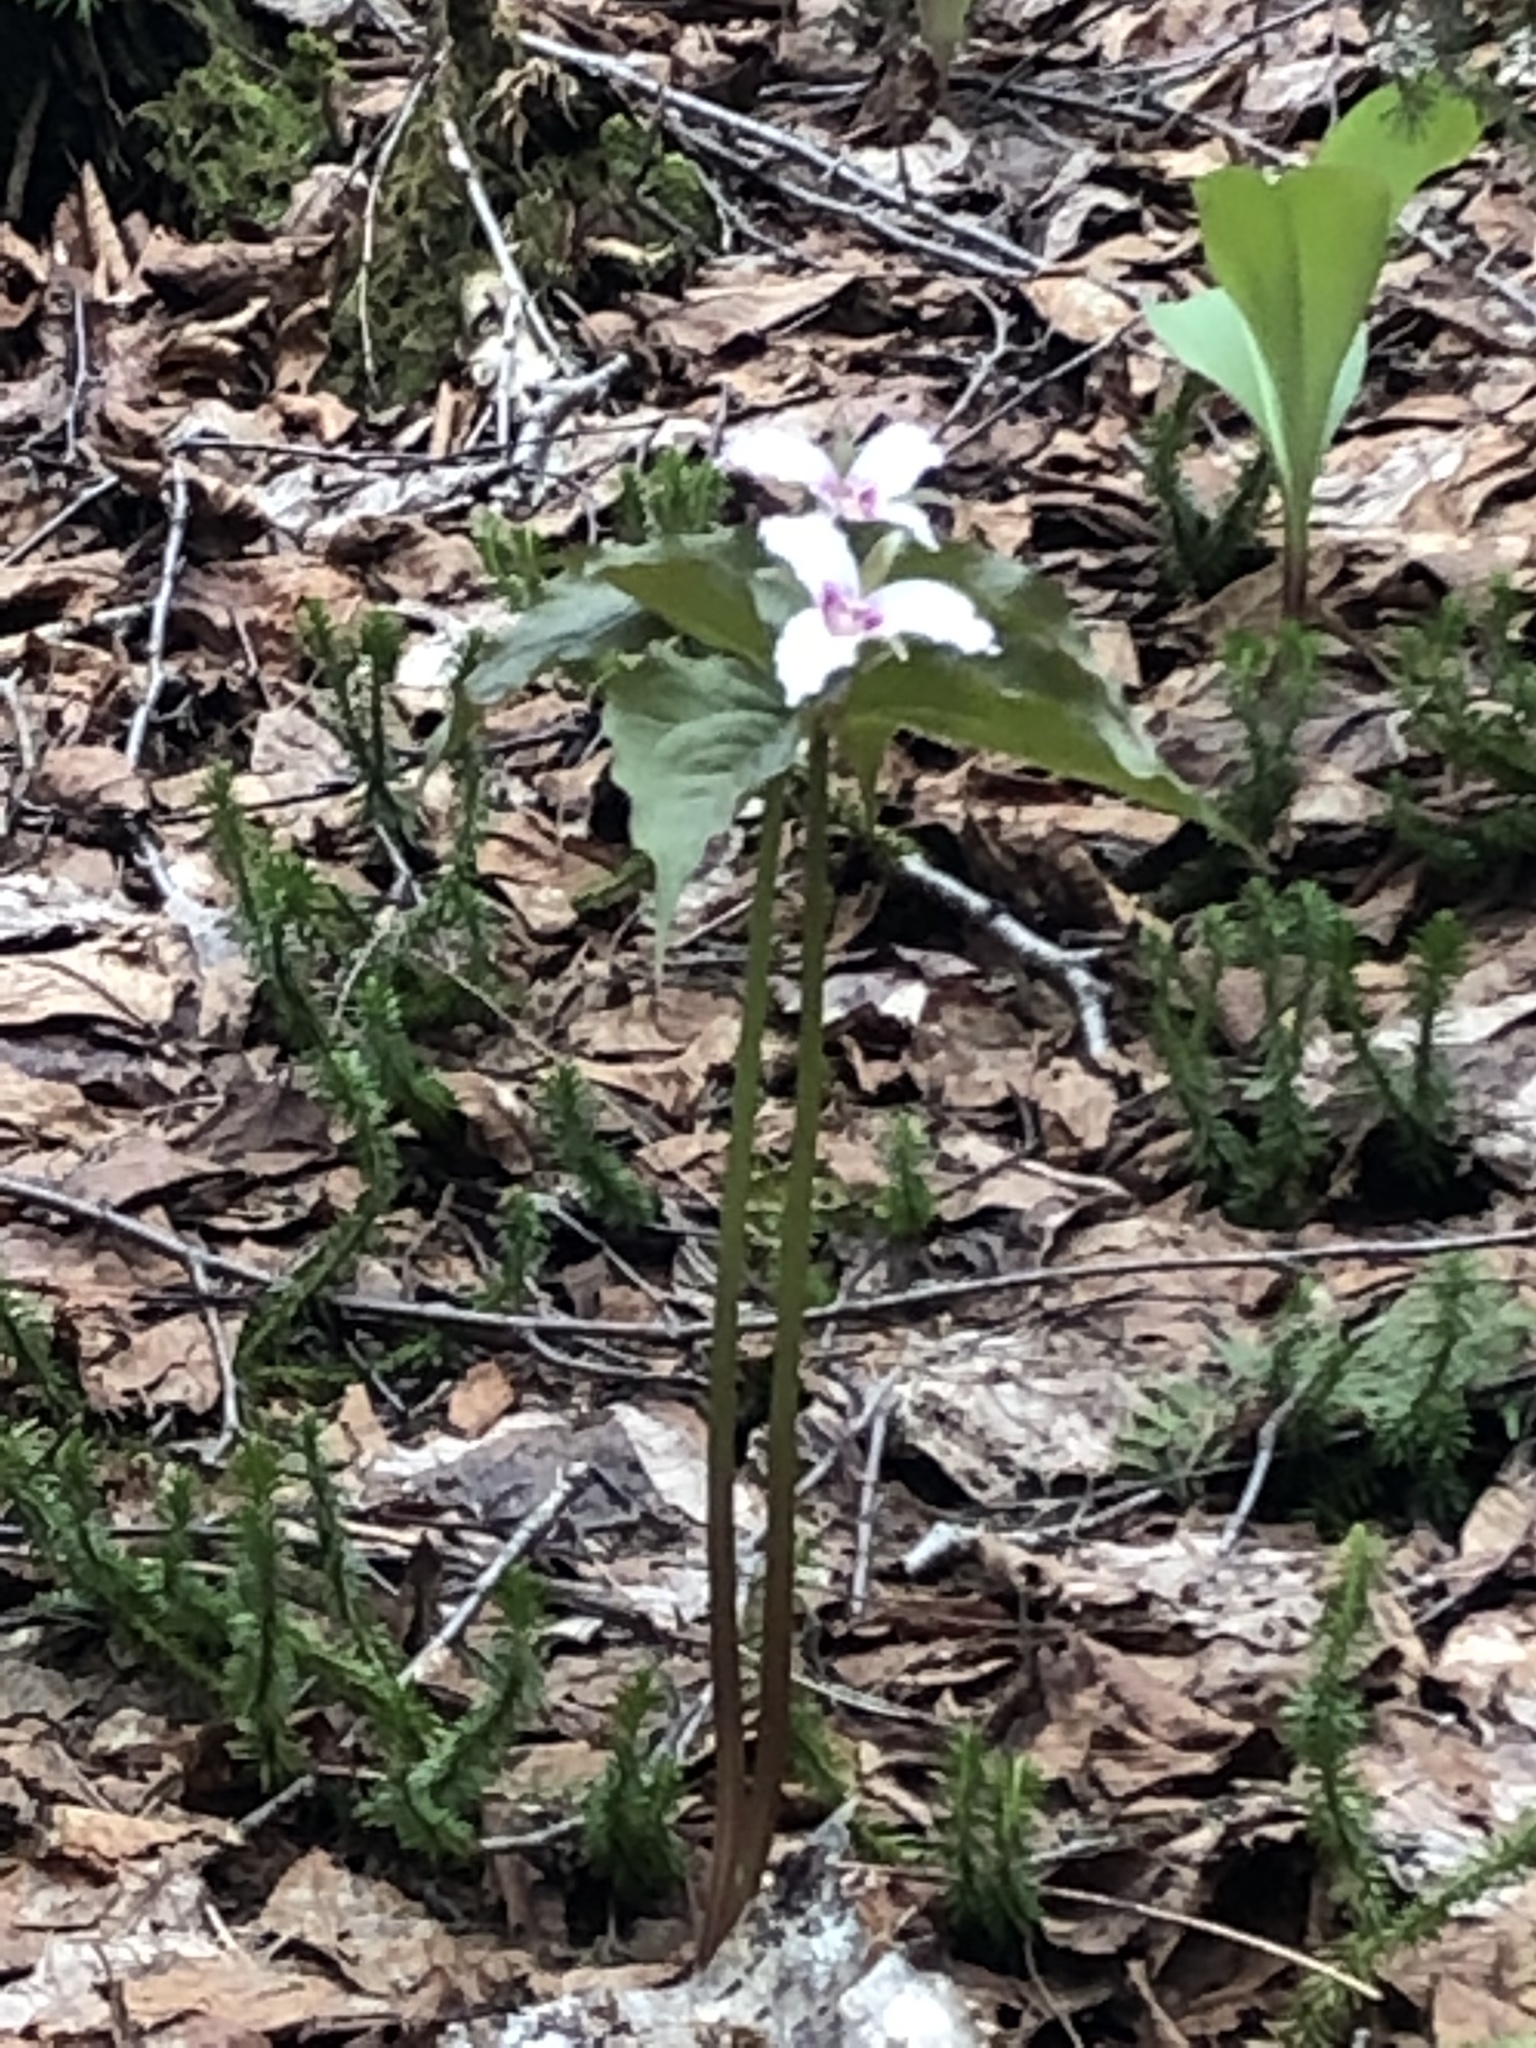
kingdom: Plantae
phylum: Tracheophyta
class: Liliopsida
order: Liliales
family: Melanthiaceae
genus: Trillium
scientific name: Trillium undulatum
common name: Paint trillium
